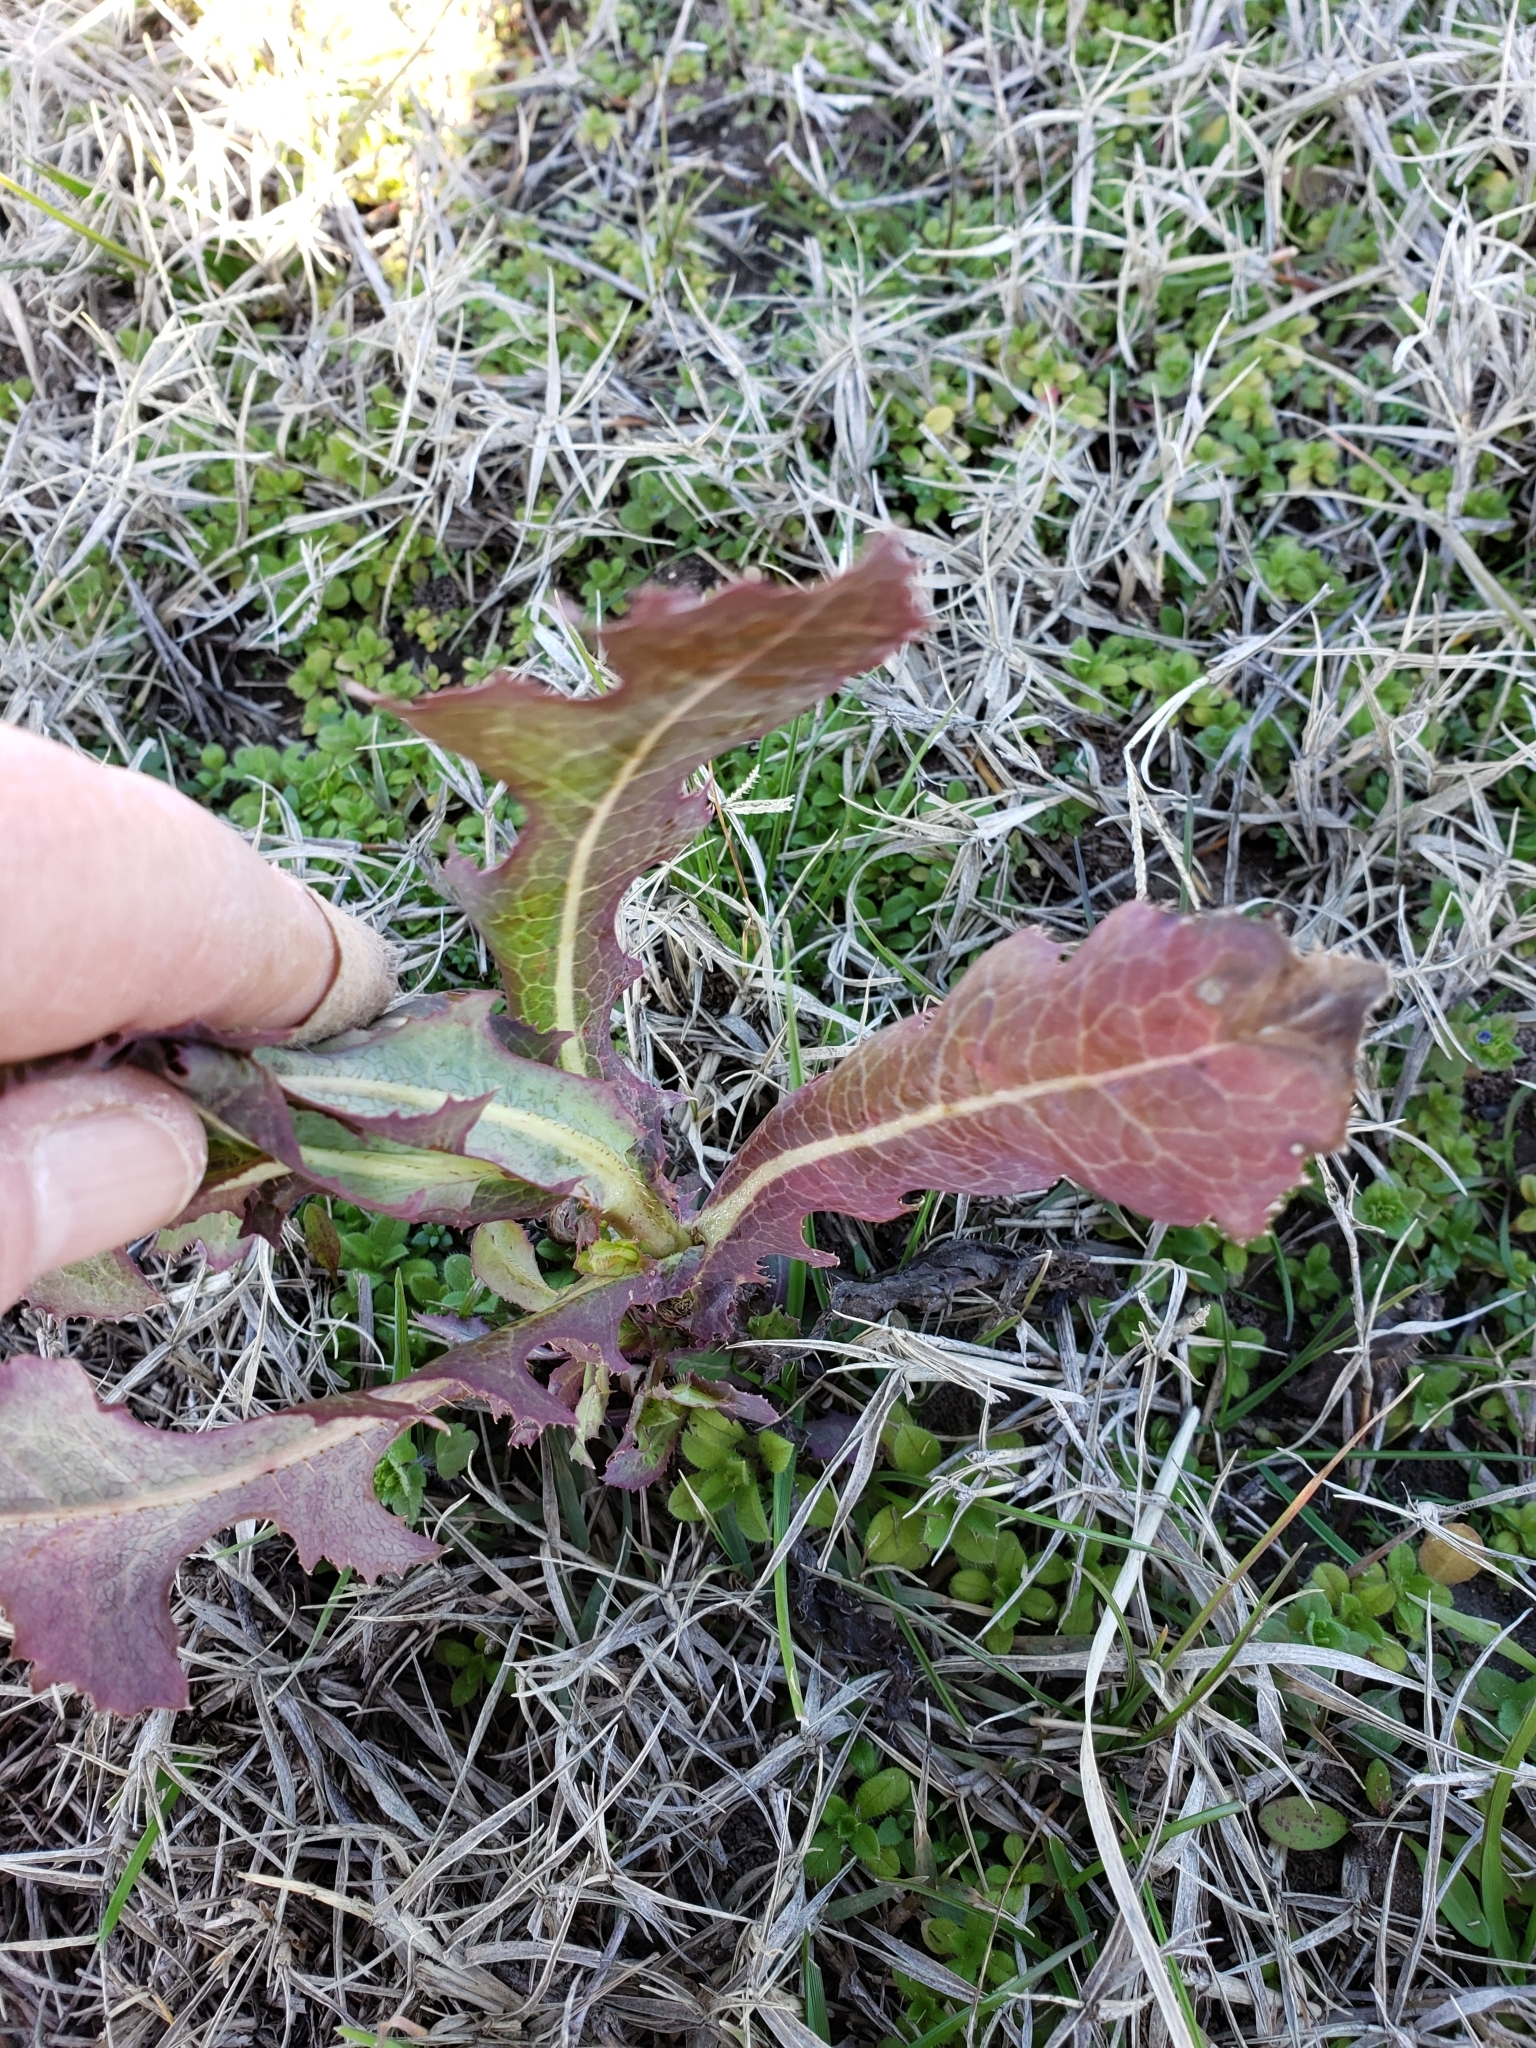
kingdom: Plantae
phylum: Tracheophyta
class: Magnoliopsida
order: Asterales
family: Asteraceae
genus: Lactuca
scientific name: Lactuca serriola
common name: Prickly lettuce
